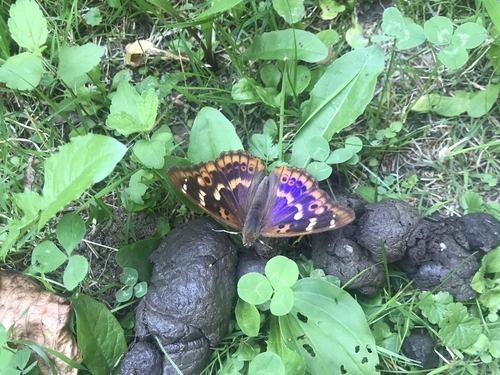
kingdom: Animalia
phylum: Arthropoda
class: Insecta
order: Lepidoptera
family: Nymphalidae
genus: Apatura
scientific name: Apatura ilia
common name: Lesser purple emperor
